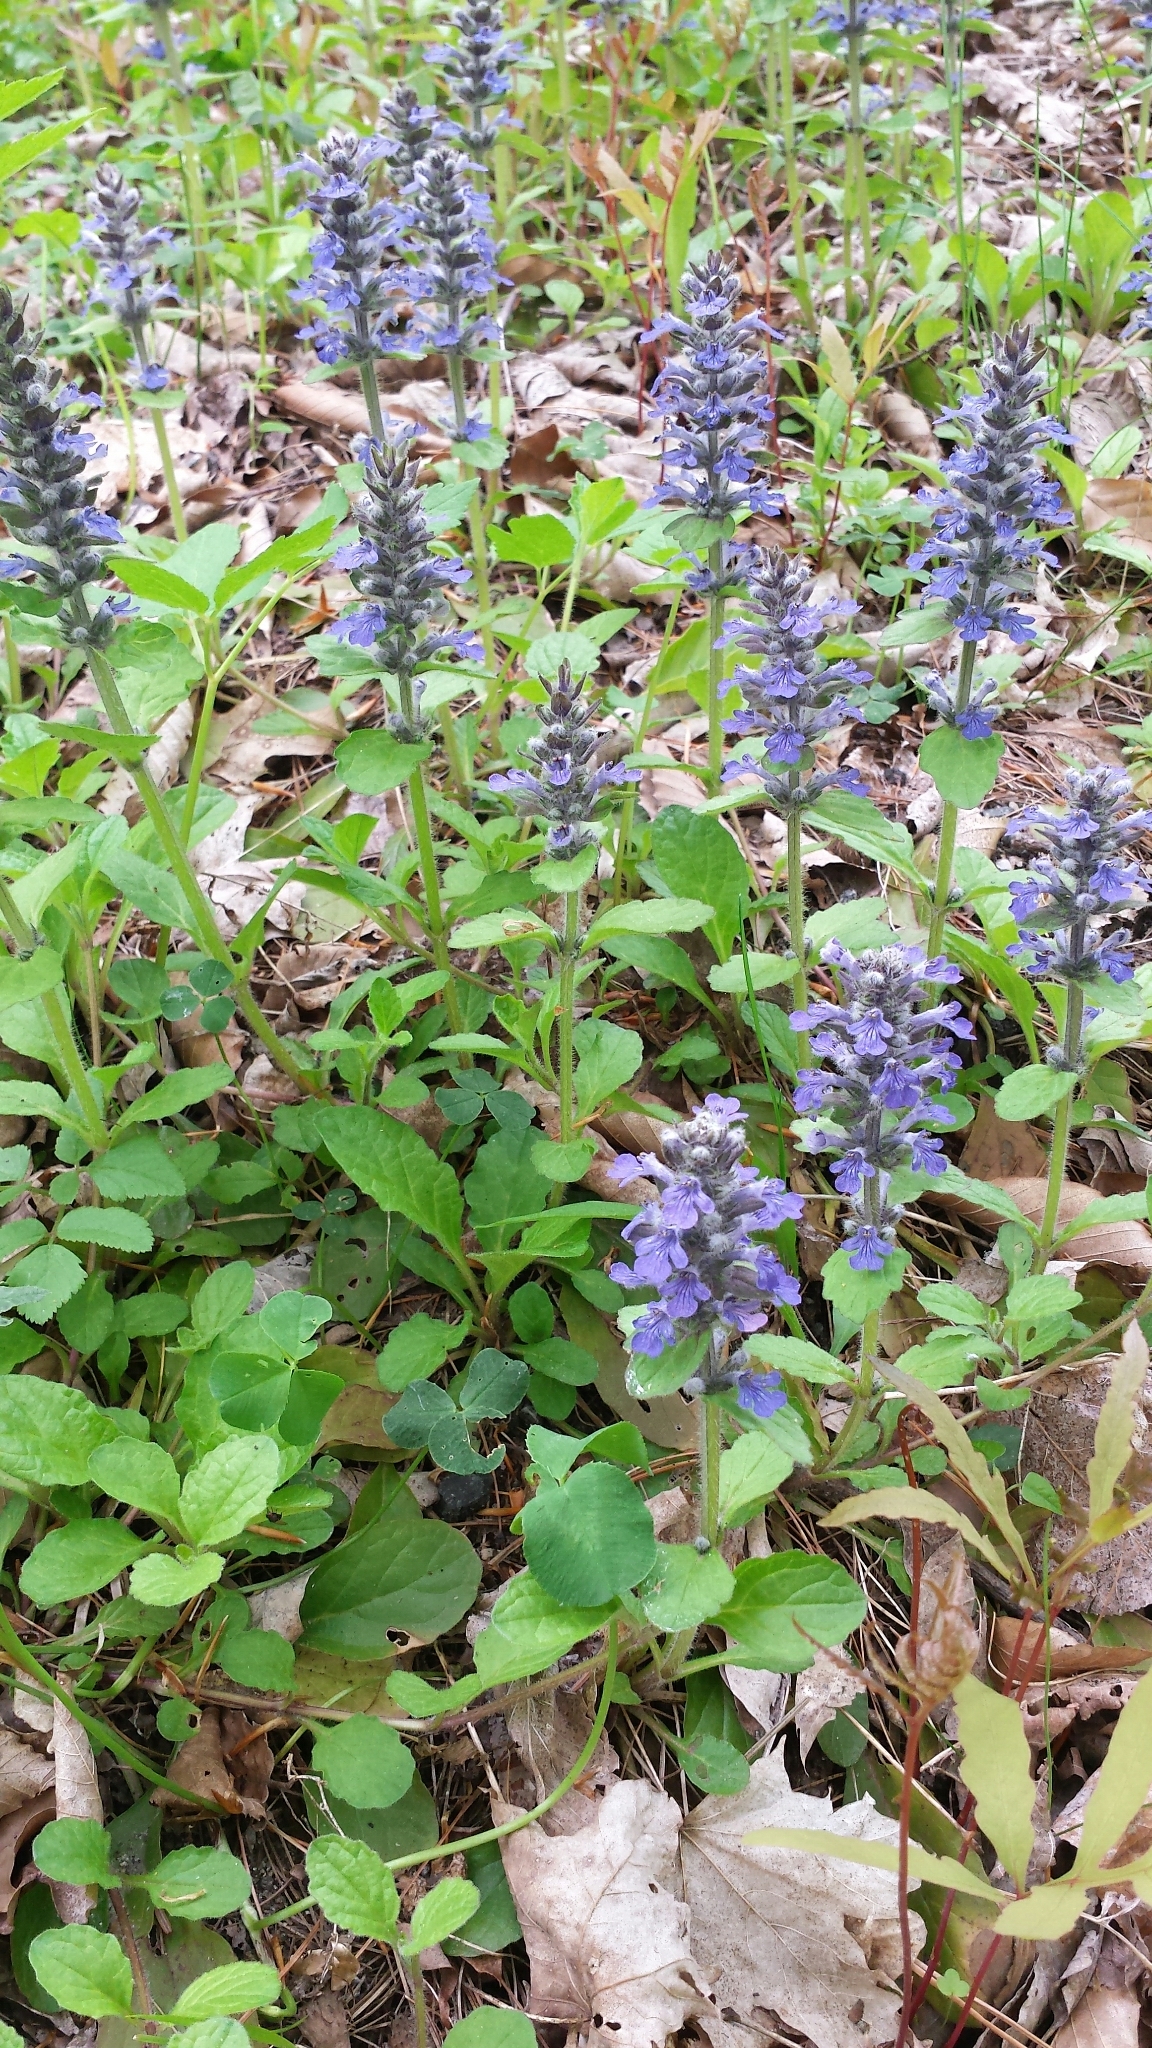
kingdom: Plantae
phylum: Tracheophyta
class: Magnoliopsida
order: Lamiales
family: Lamiaceae
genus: Ajuga
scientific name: Ajuga reptans
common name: Bugle
